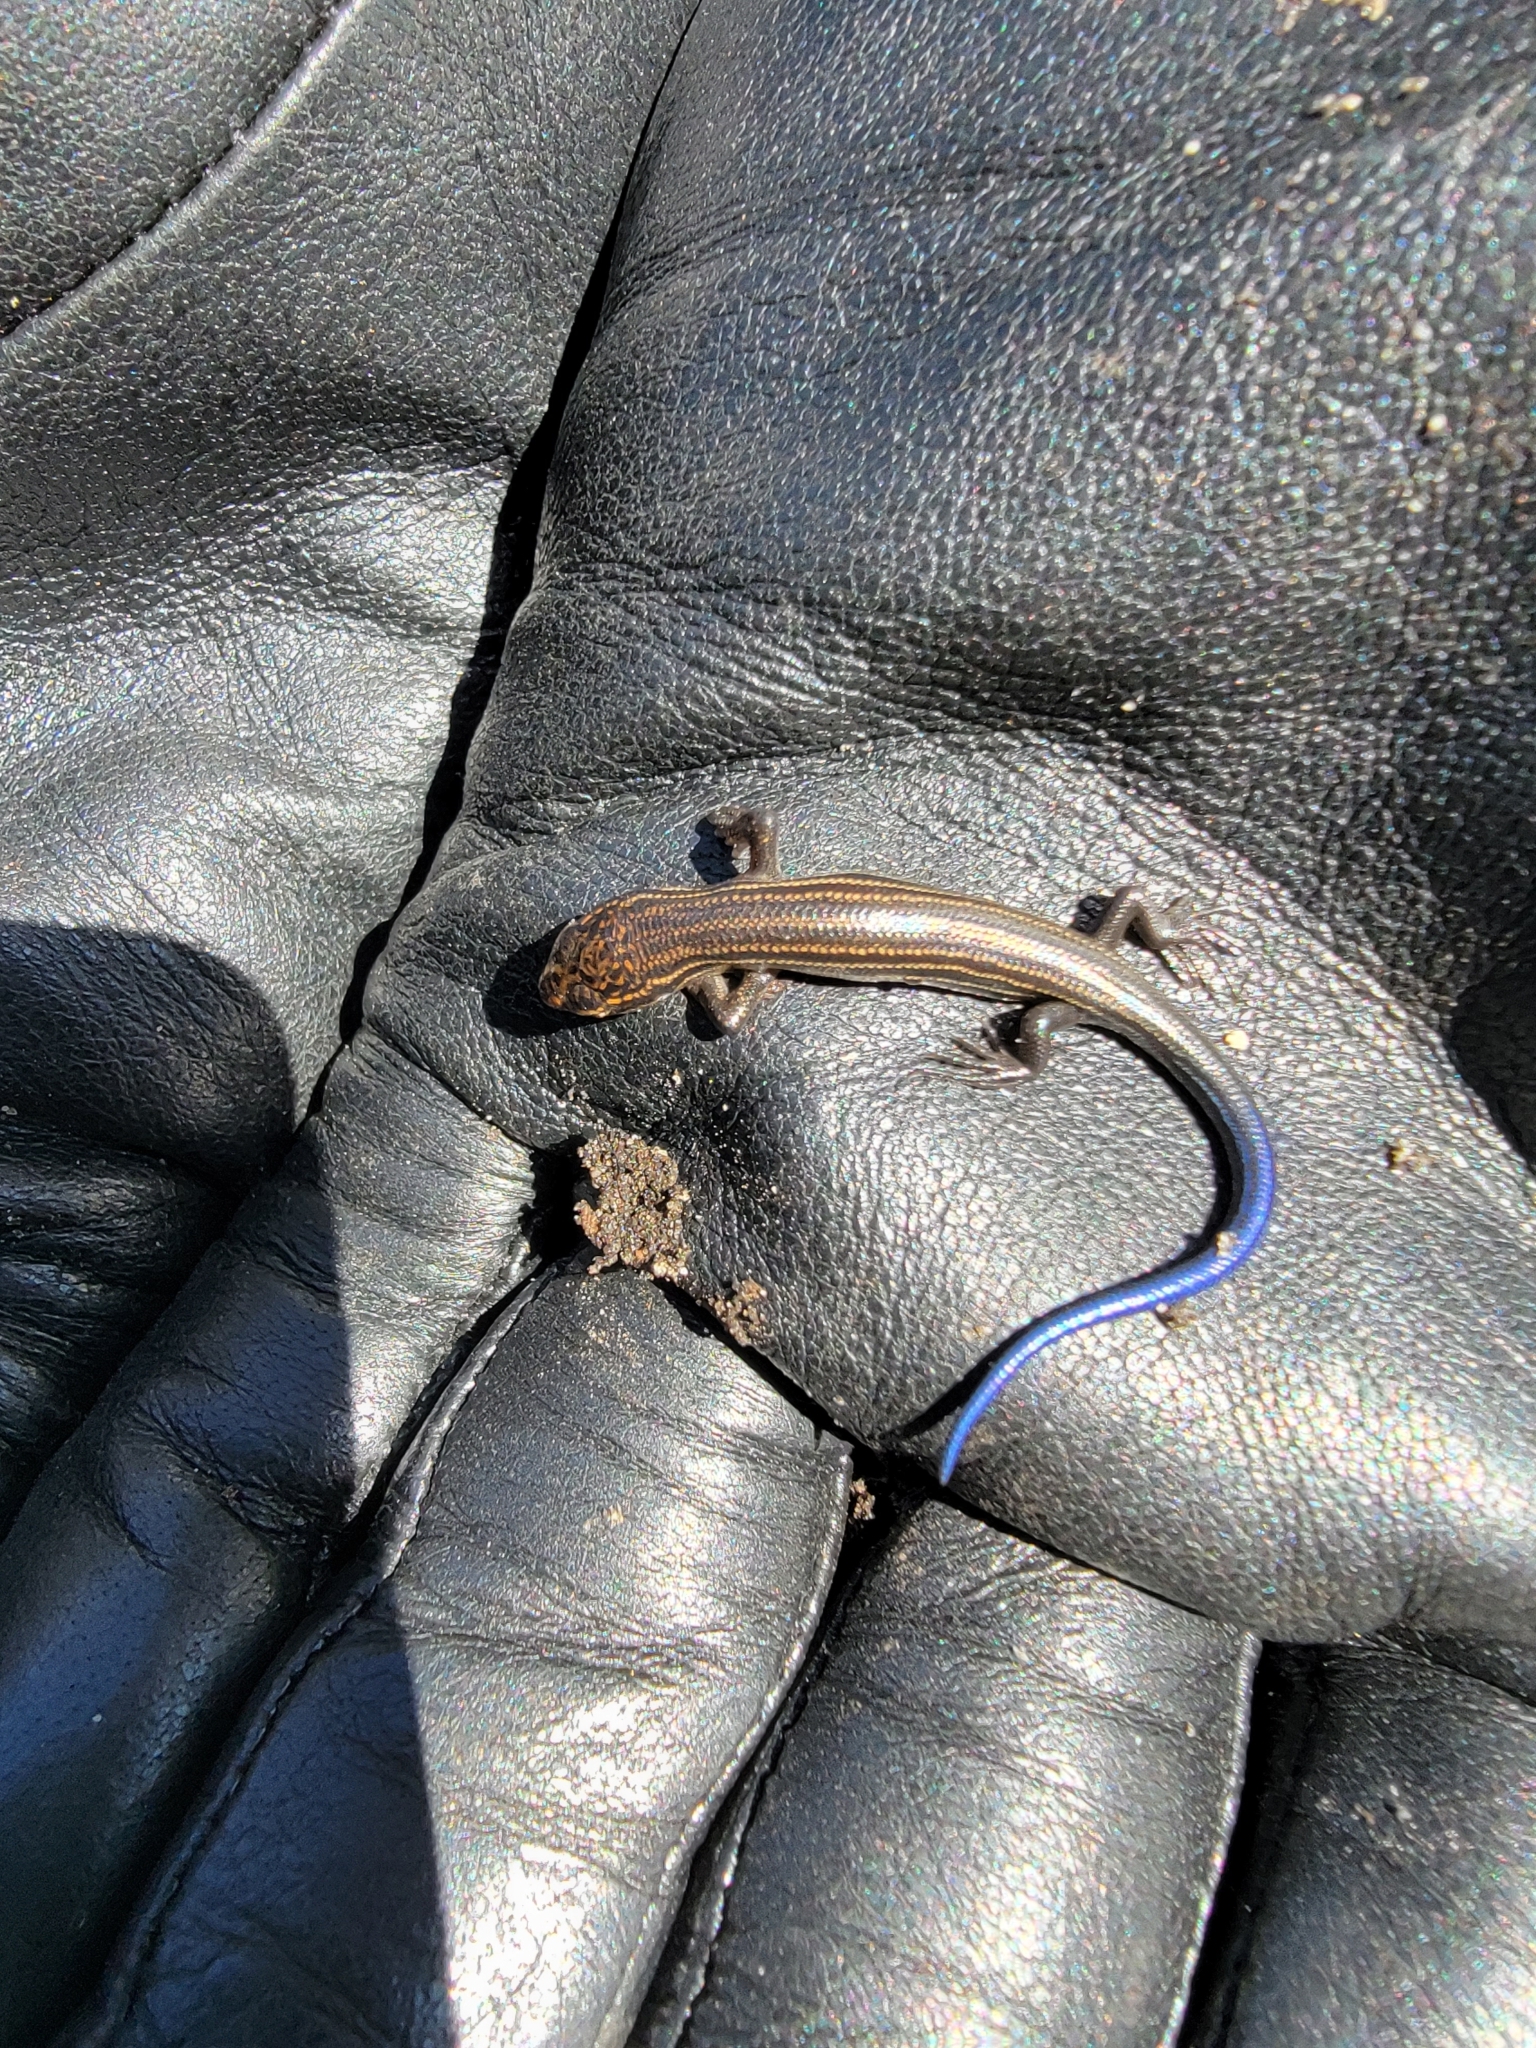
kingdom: Animalia
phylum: Chordata
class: Squamata
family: Scincidae
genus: Plestiodon
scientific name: Plestiodon septentrionalis
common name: Northern prairie skink
